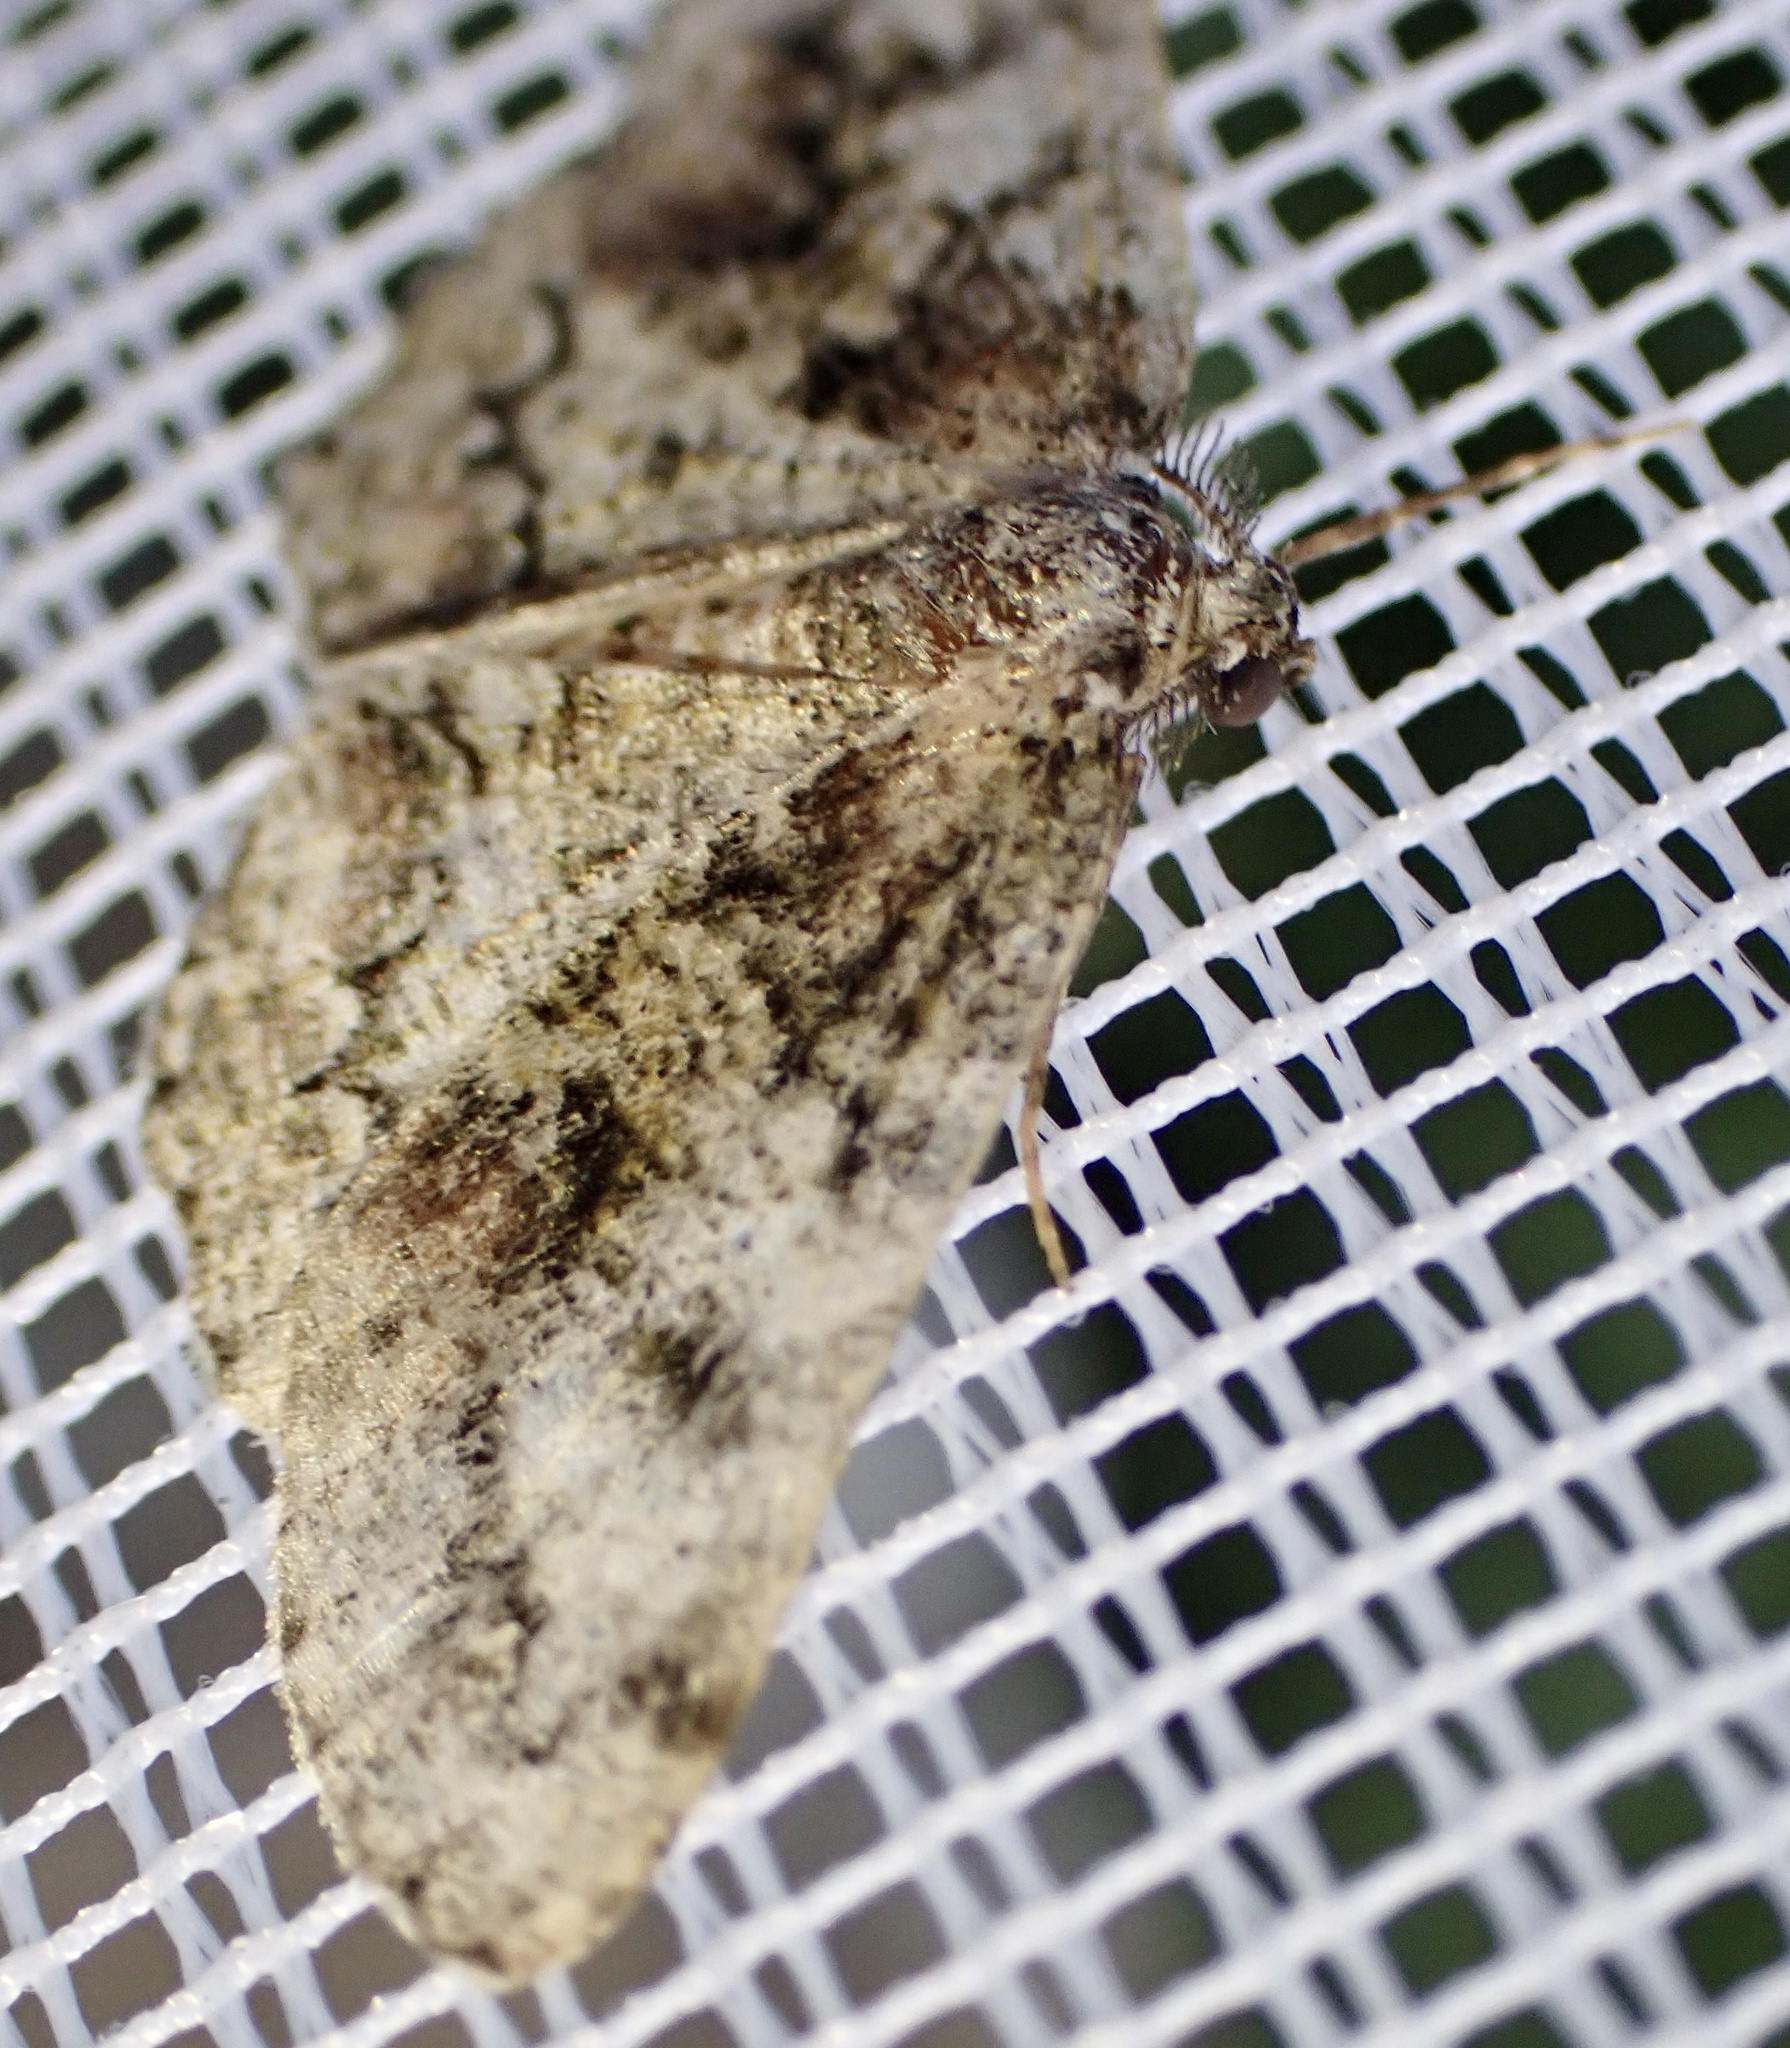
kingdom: Animalia
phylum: Arthropoda
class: Insecta
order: Lepidoptera
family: Geometridae
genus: Cleorodes
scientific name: Cleorodes lichenaria
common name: Brussels lace
